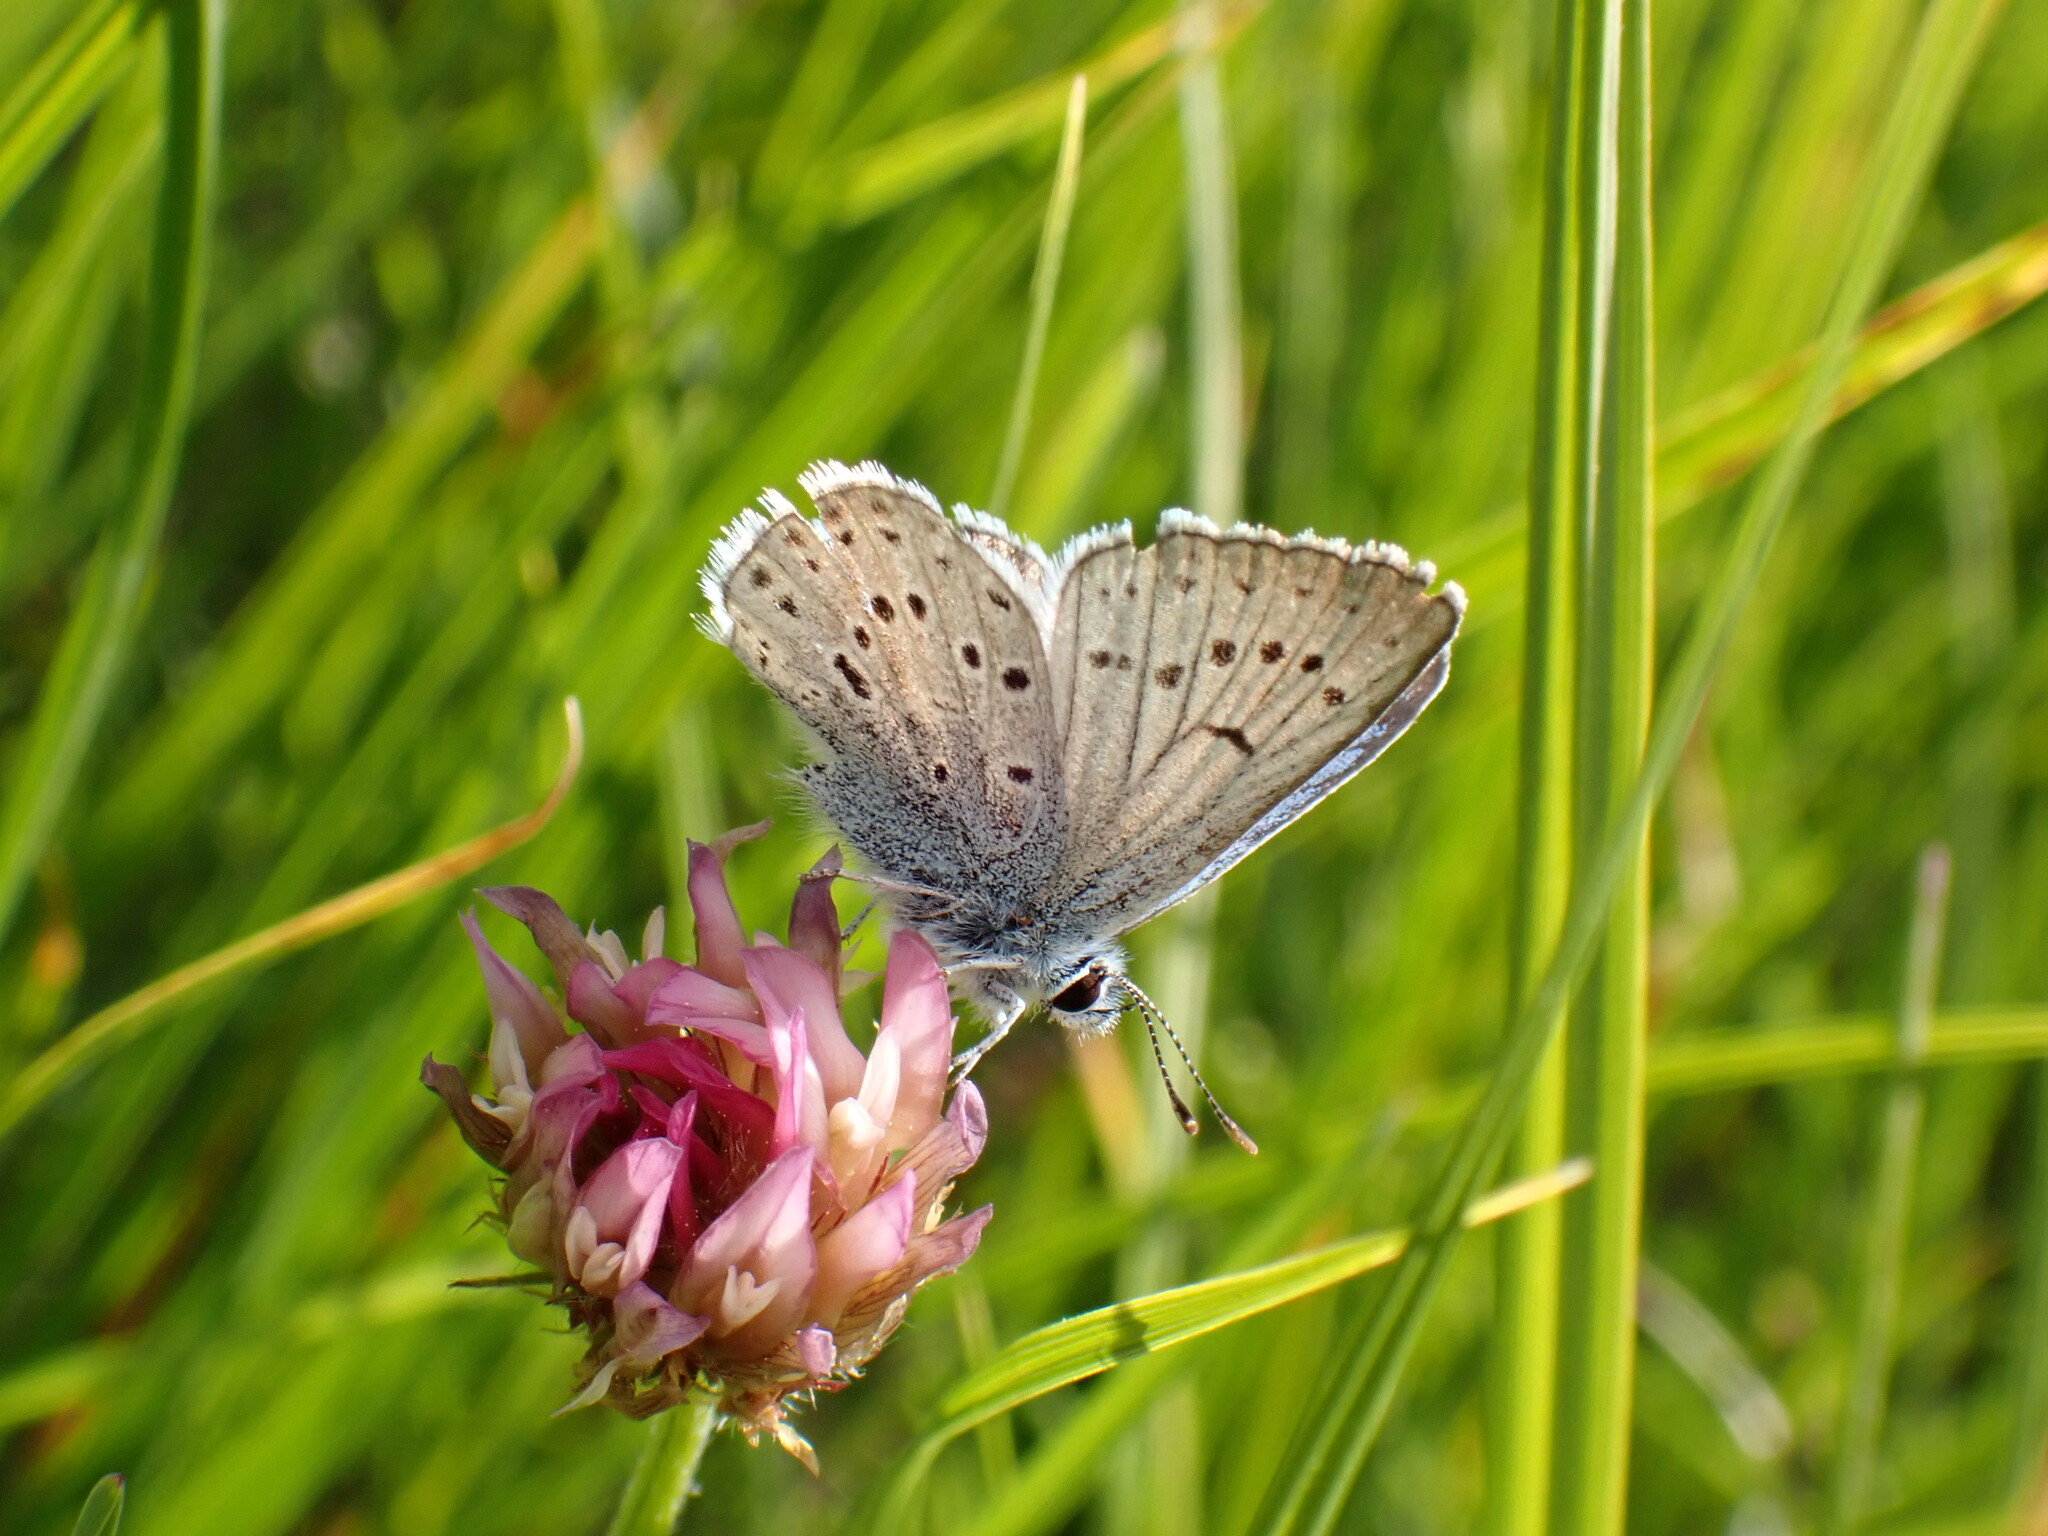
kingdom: Animalia
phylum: Arthropoda
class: Insecta
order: Lepidoptera
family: Lycaenidae
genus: Icaricia
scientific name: Icaricia saepiolus
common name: Greenish blue
